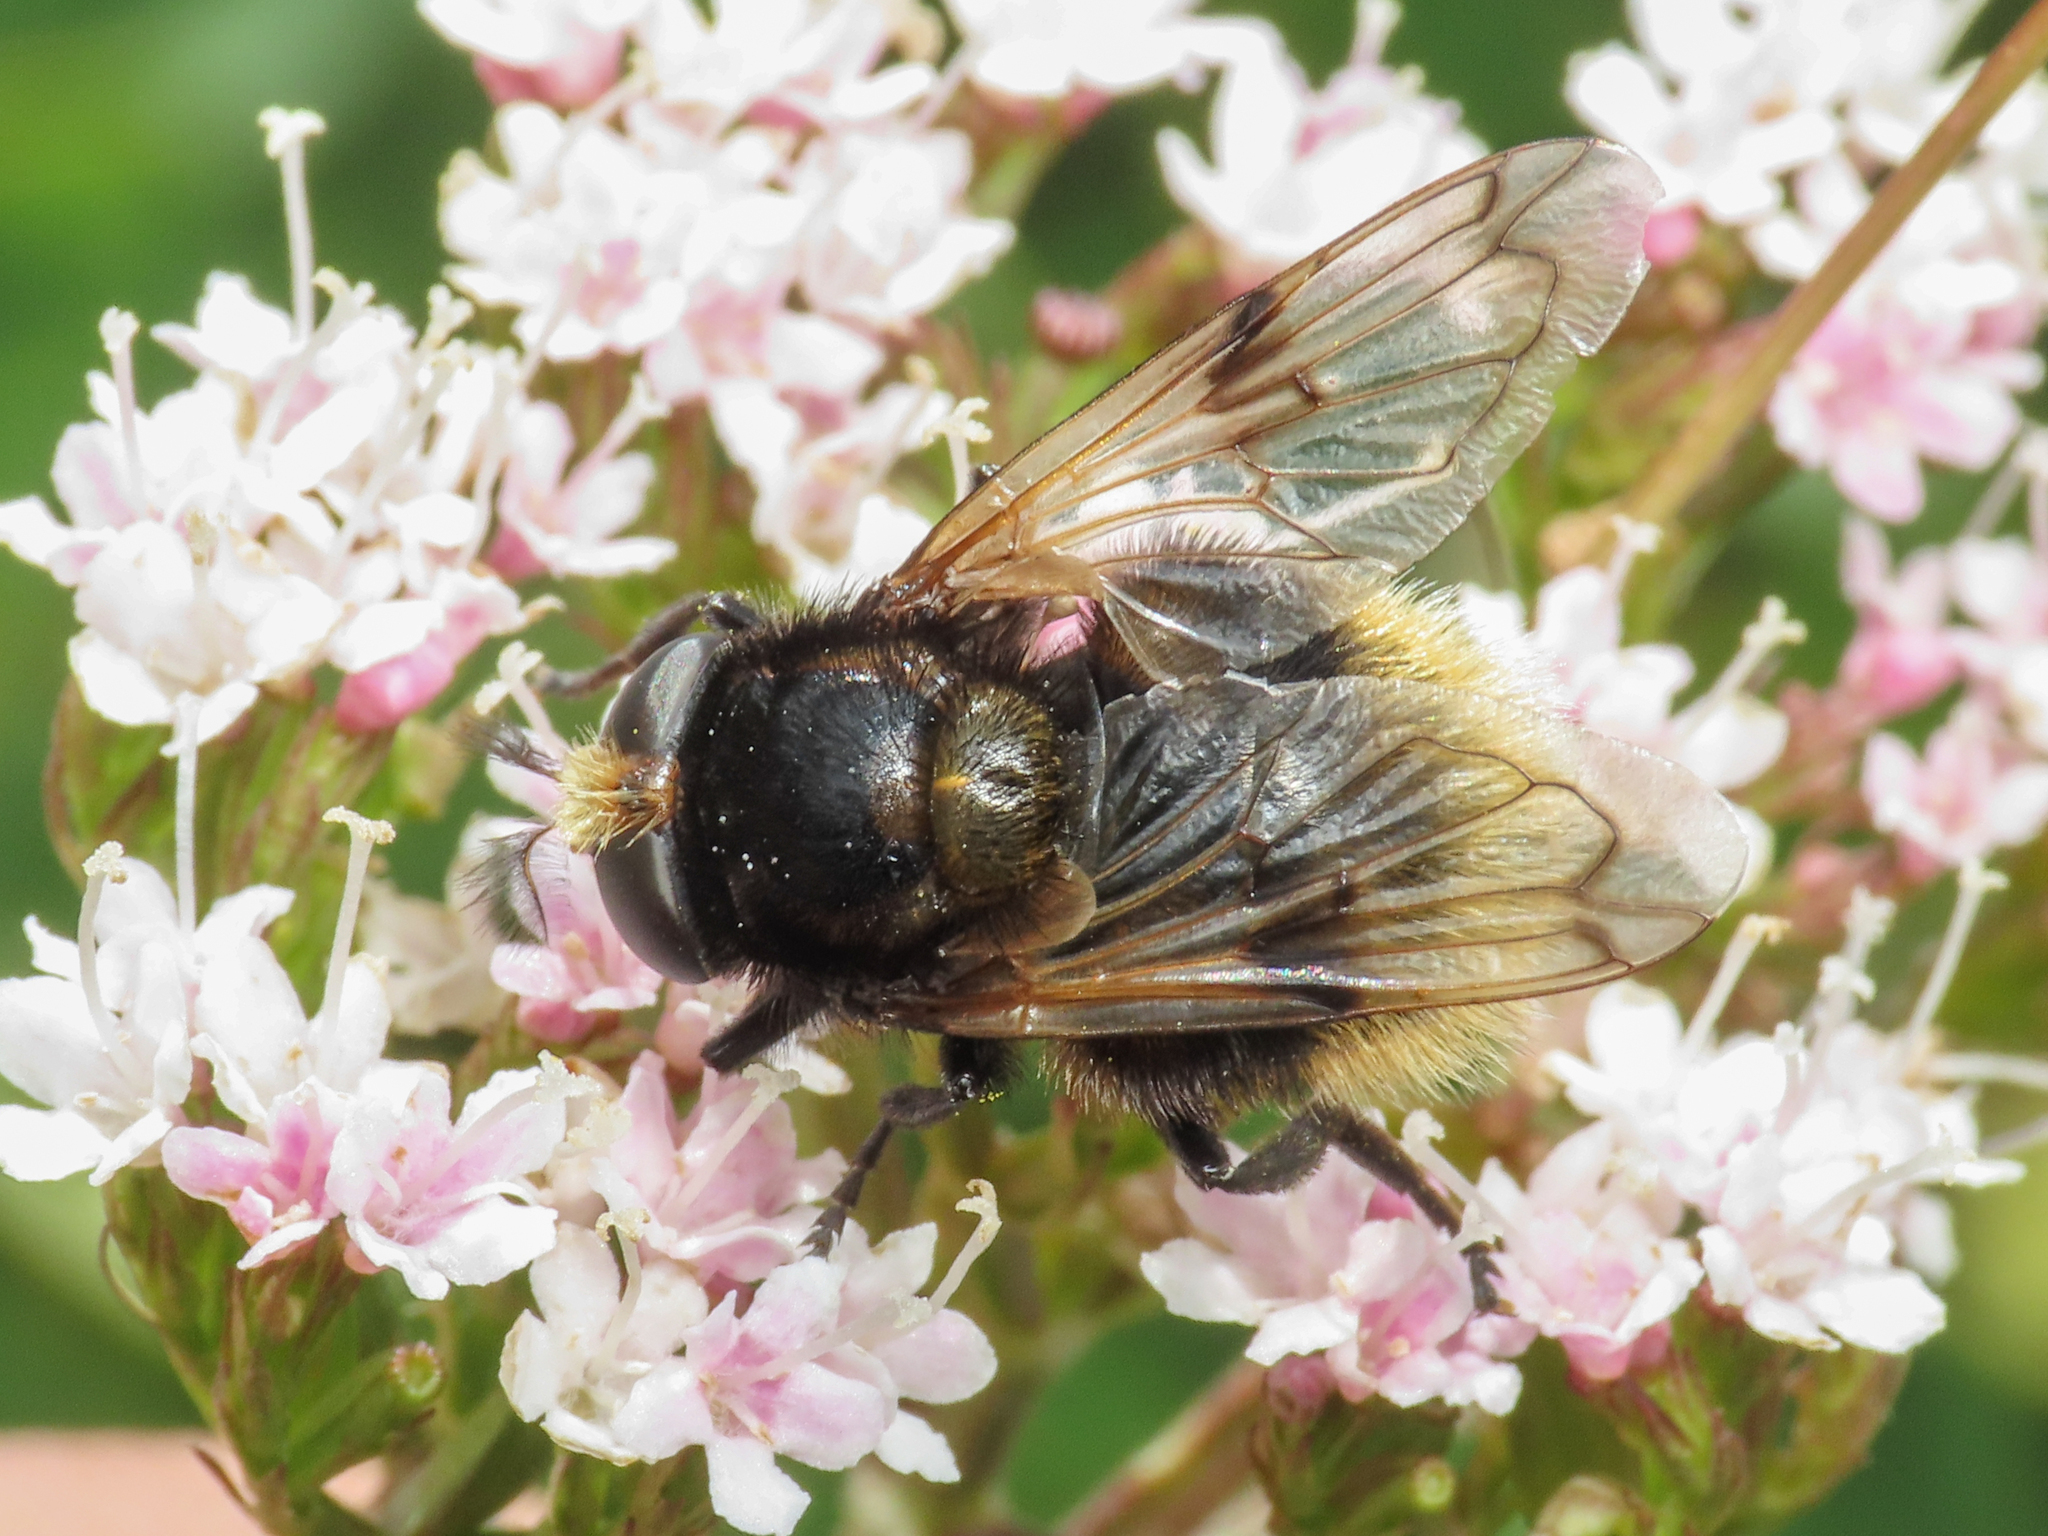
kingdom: Animalia
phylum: Arthropoda
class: Insecta
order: Diptera
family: Syrphidae
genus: Volucella
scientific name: Volucella bombylans
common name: Bumble bee hover fly
